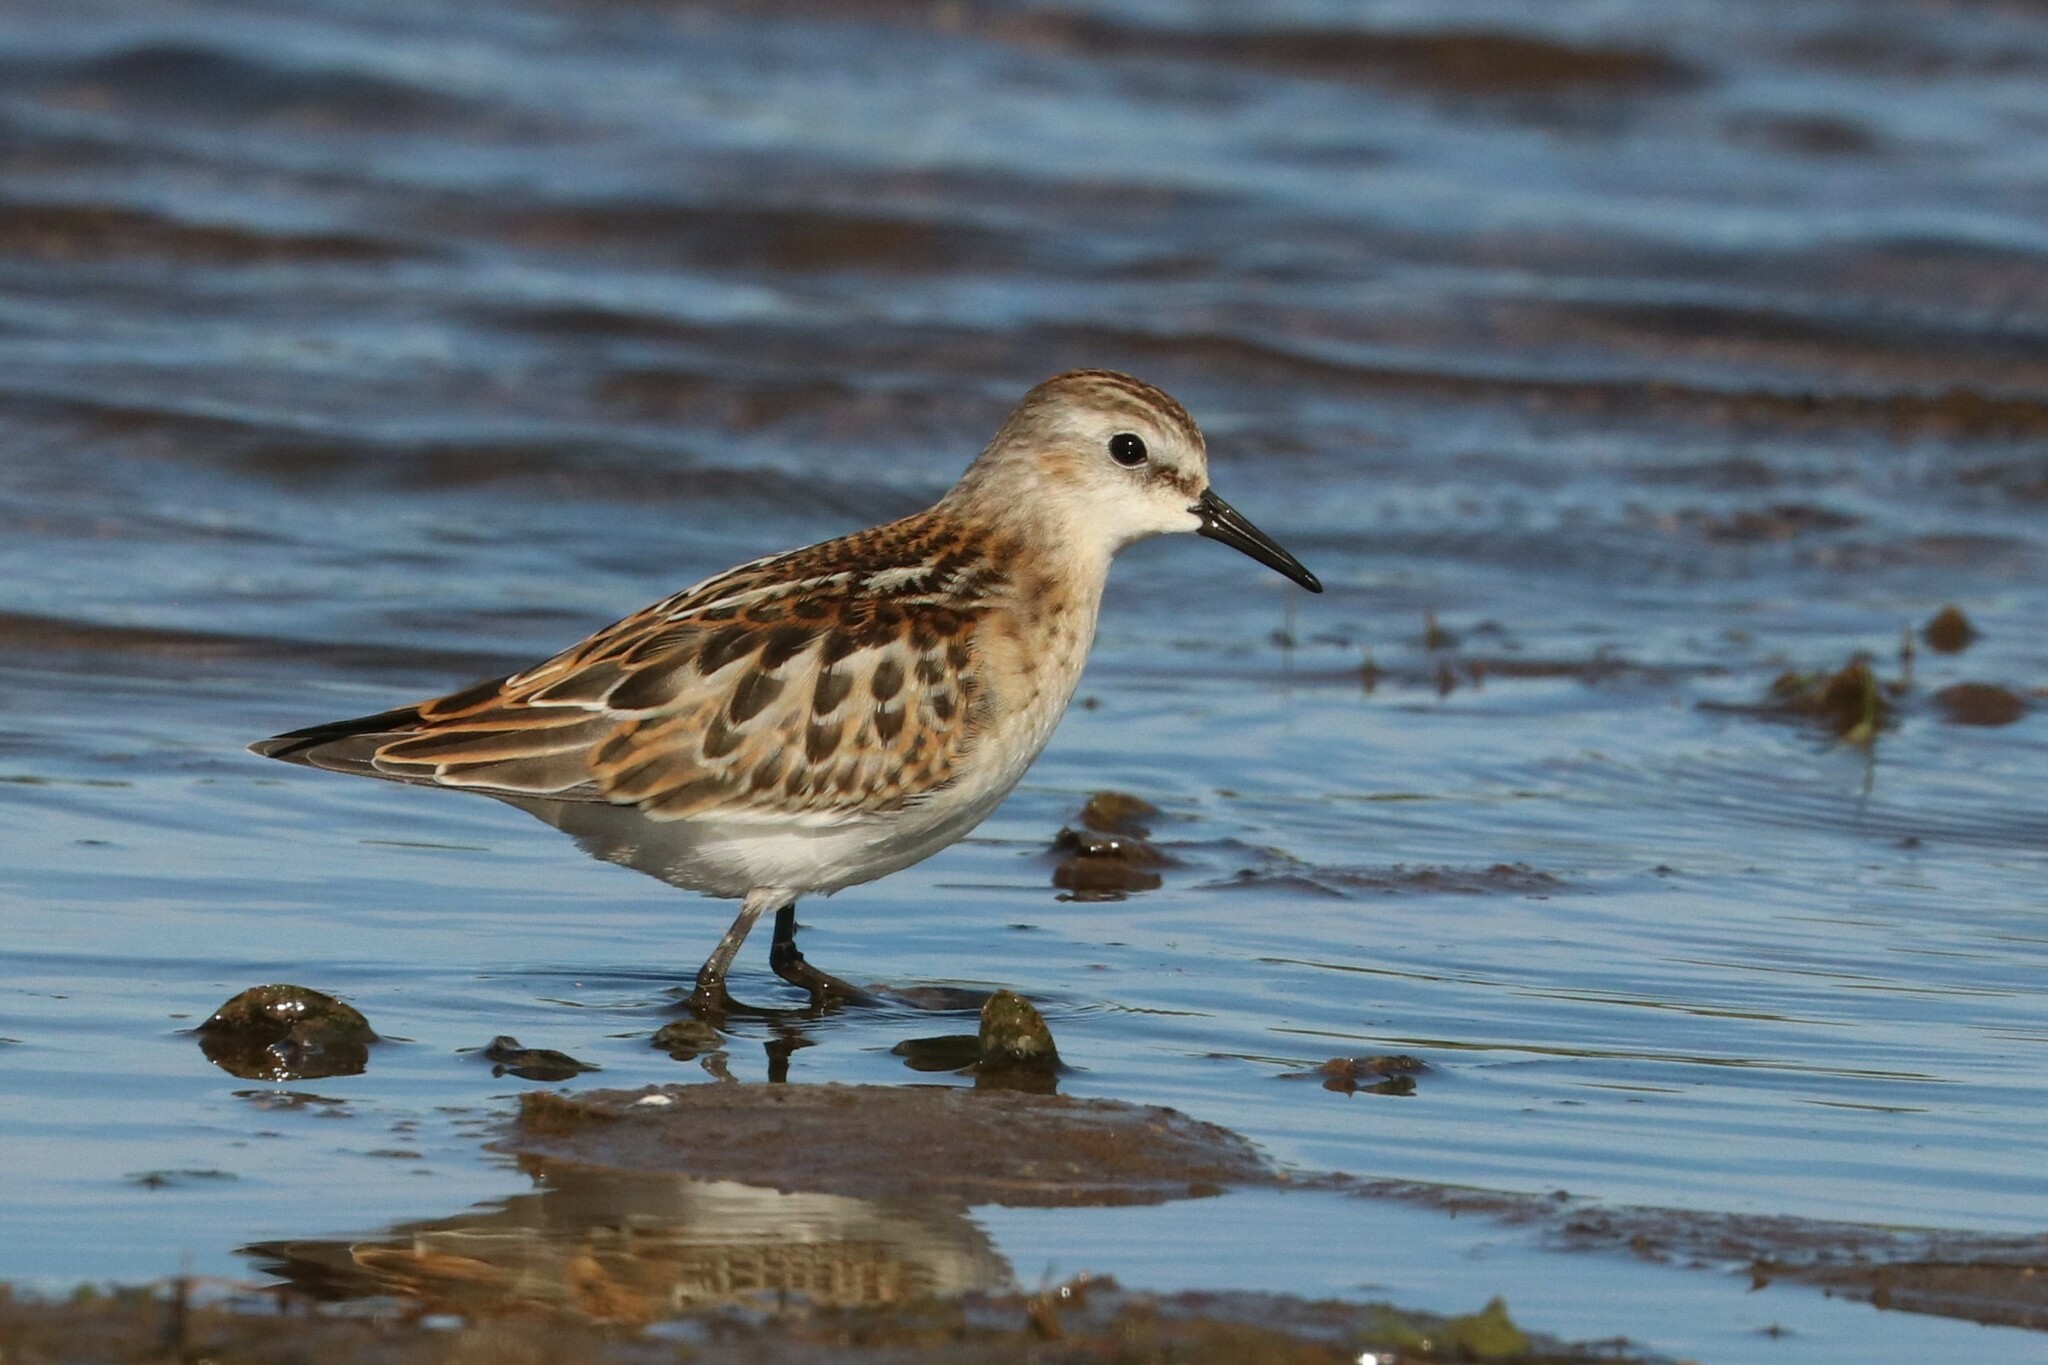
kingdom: Animalia
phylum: Chordata
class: Aves
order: Charadriiformes
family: Scolopacidae
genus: Calidris
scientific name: Calidris minuta
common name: Little stint
